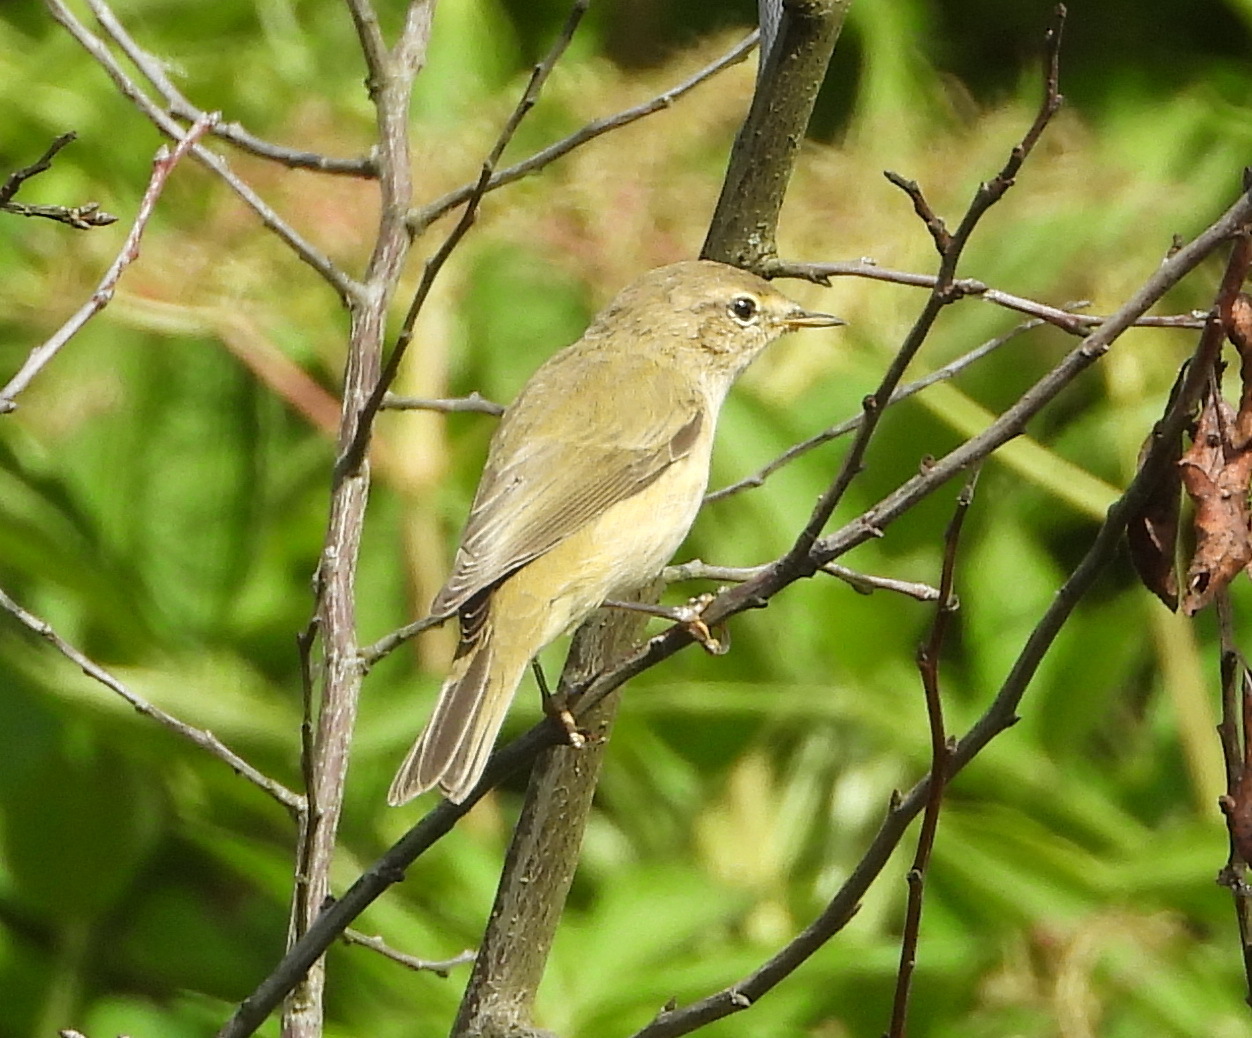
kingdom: Animalia
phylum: Chordata
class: Aves
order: Passeriformes
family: Phylloscopidae
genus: Phylloscopus
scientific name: Phylloscopus collybita
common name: Common chiffchaff
